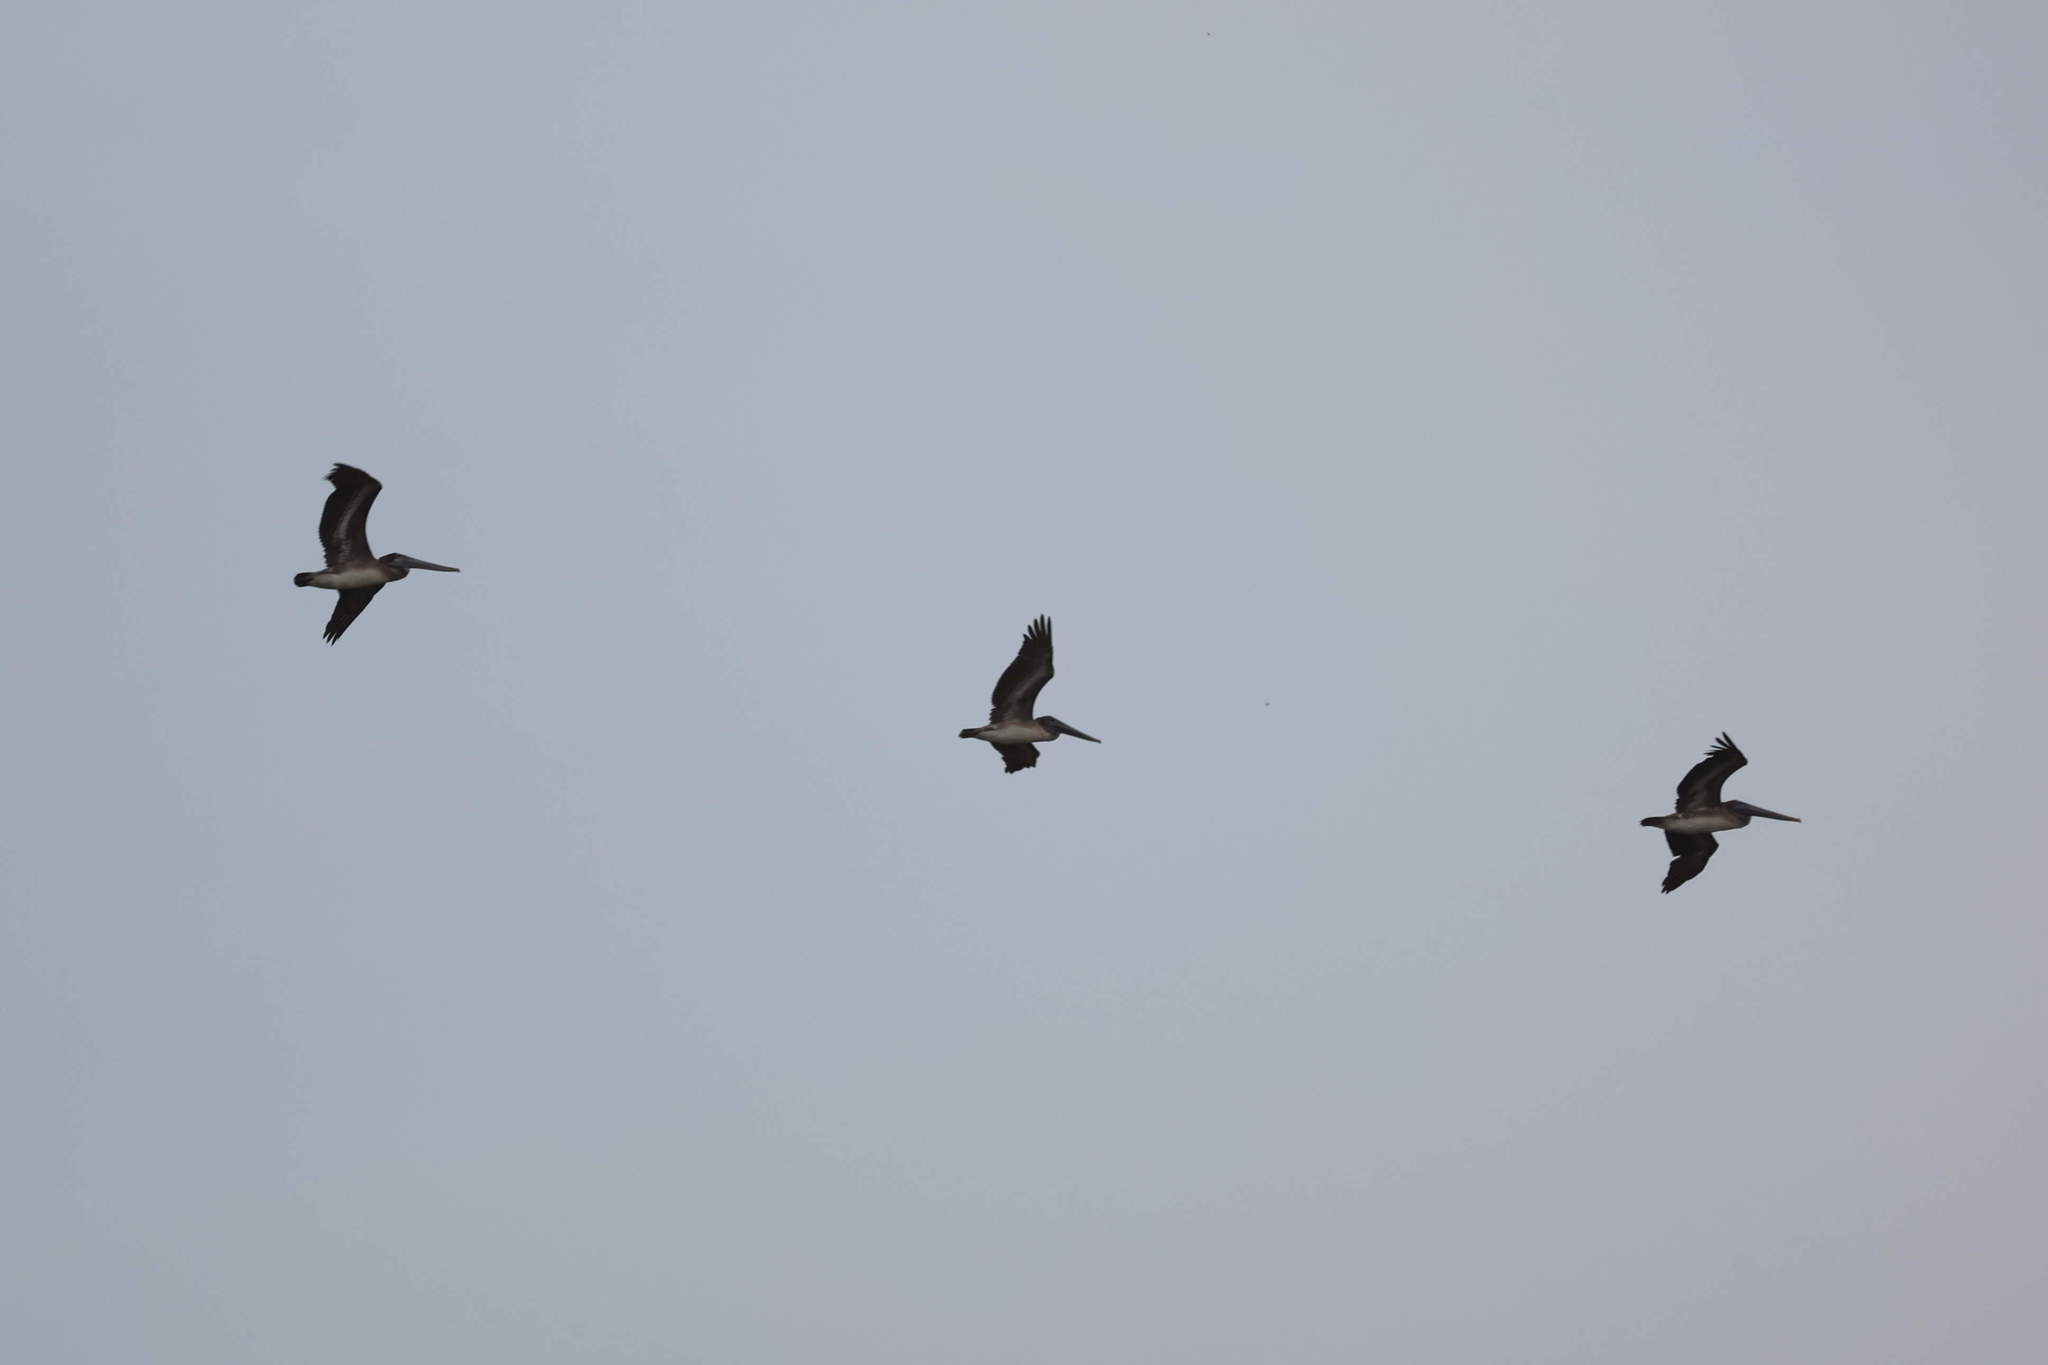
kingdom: Animalia
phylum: Chordata
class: Aves
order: Pelecaniformes
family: Pelecanidae
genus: Pelecanus
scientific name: Pelecanus occidentalis
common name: Brown pelican
